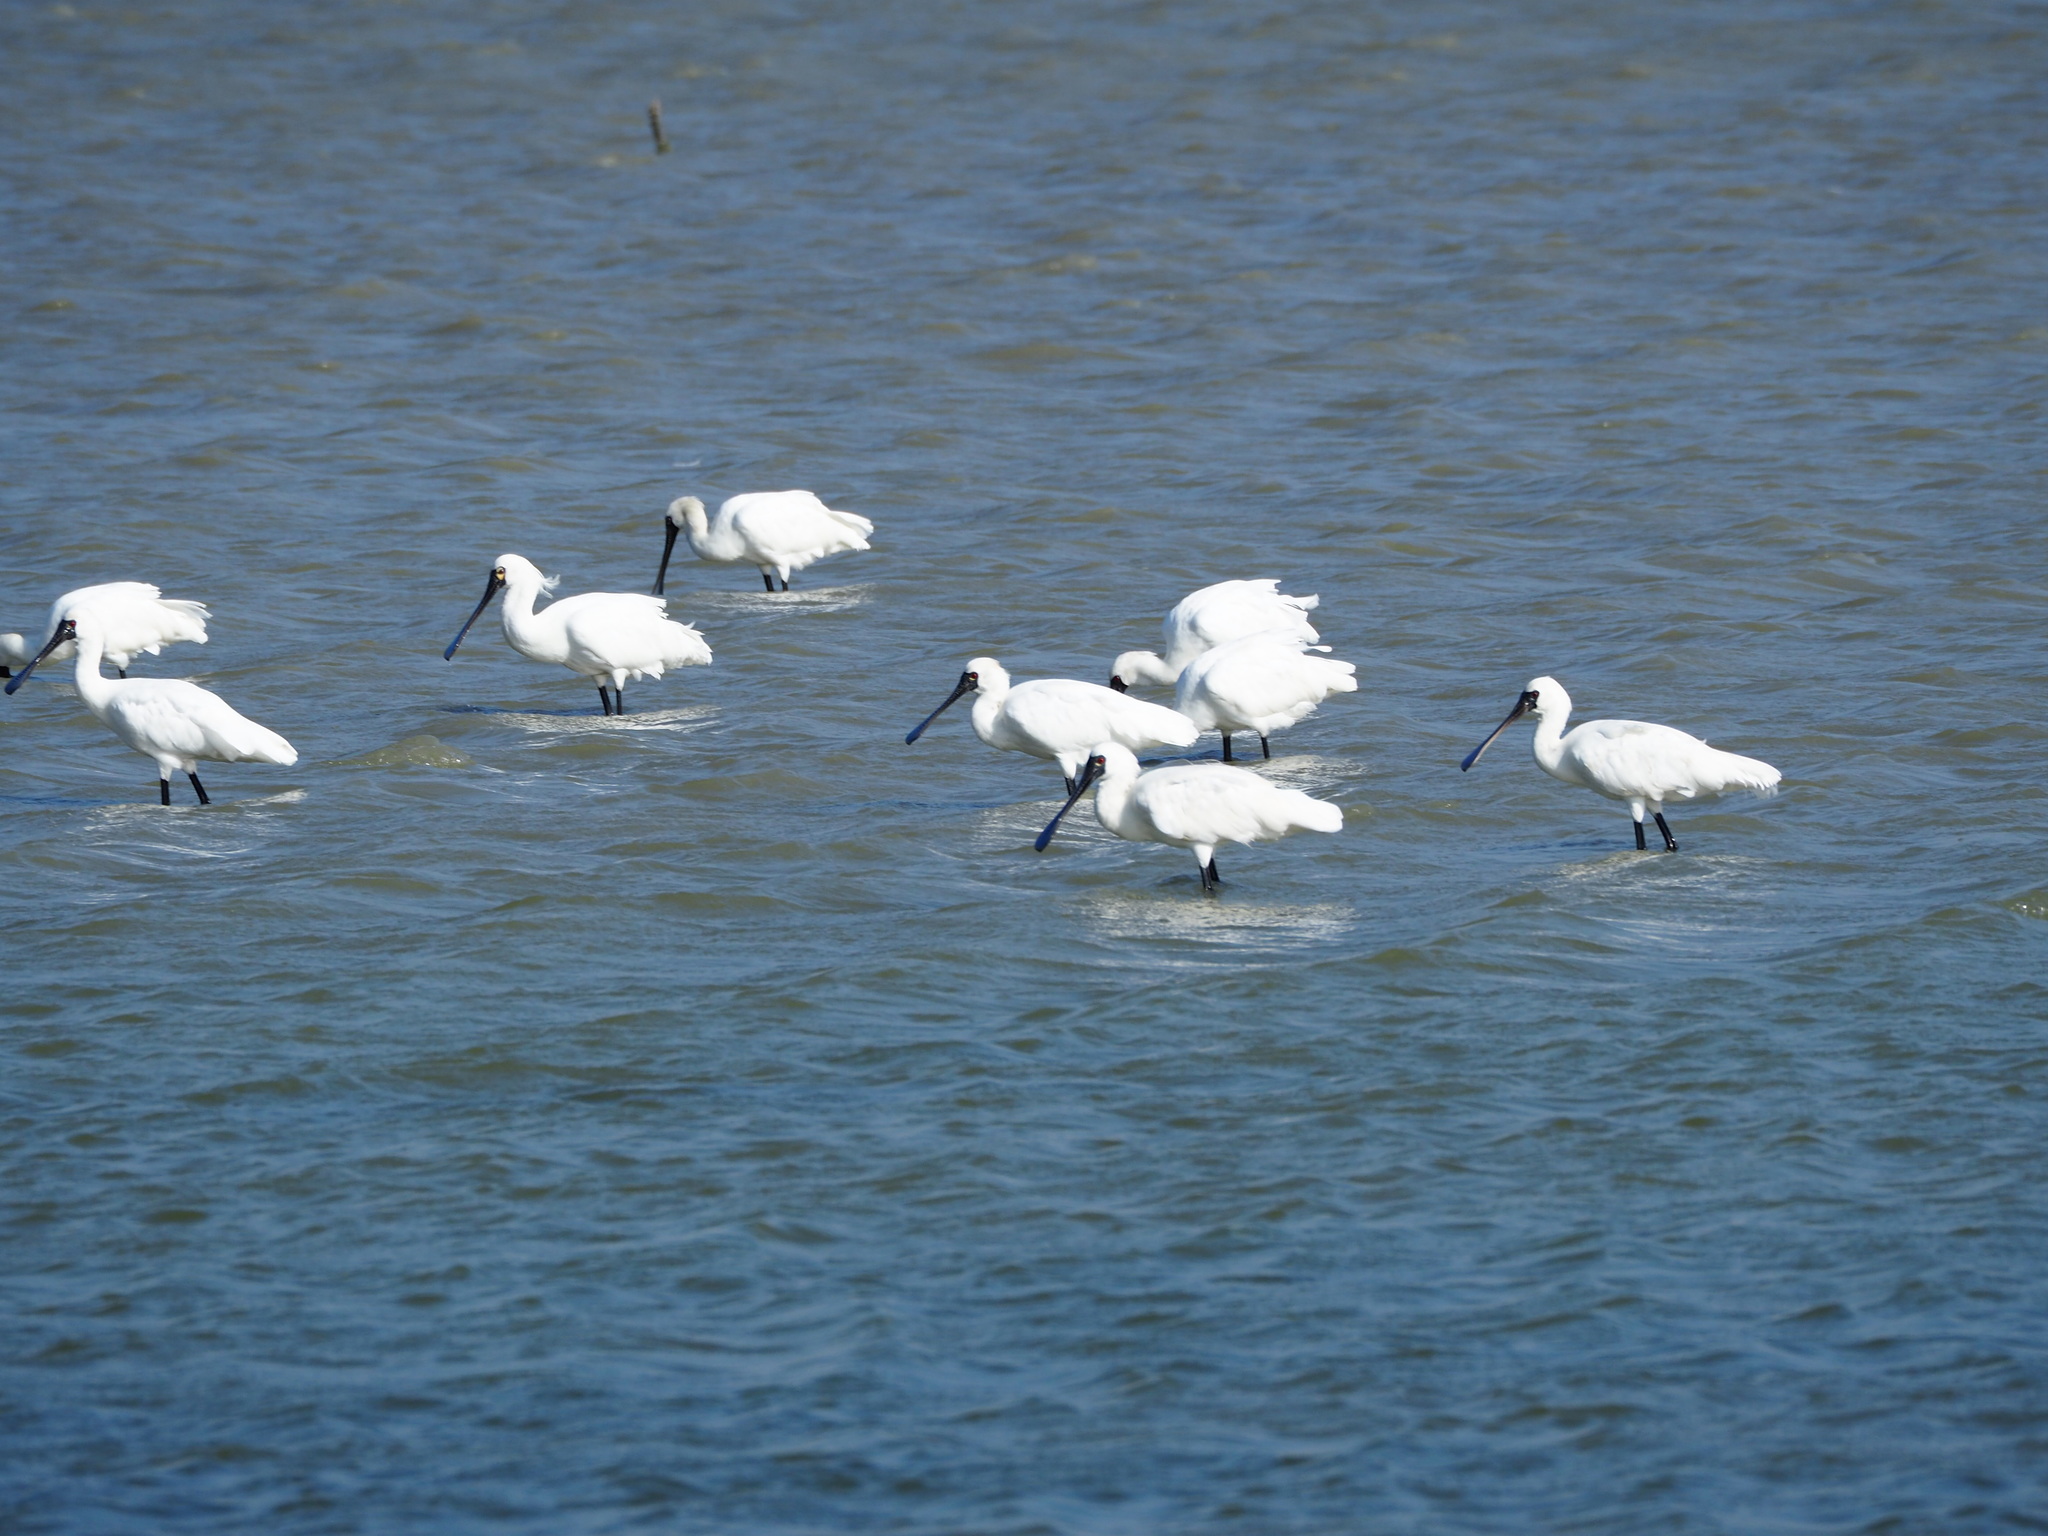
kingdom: Animalia
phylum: Chordata
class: Aves
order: Pelecaniformes
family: Threskiornithidae
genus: Platalea
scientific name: Platalea minor
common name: Black-faced spoonbill
